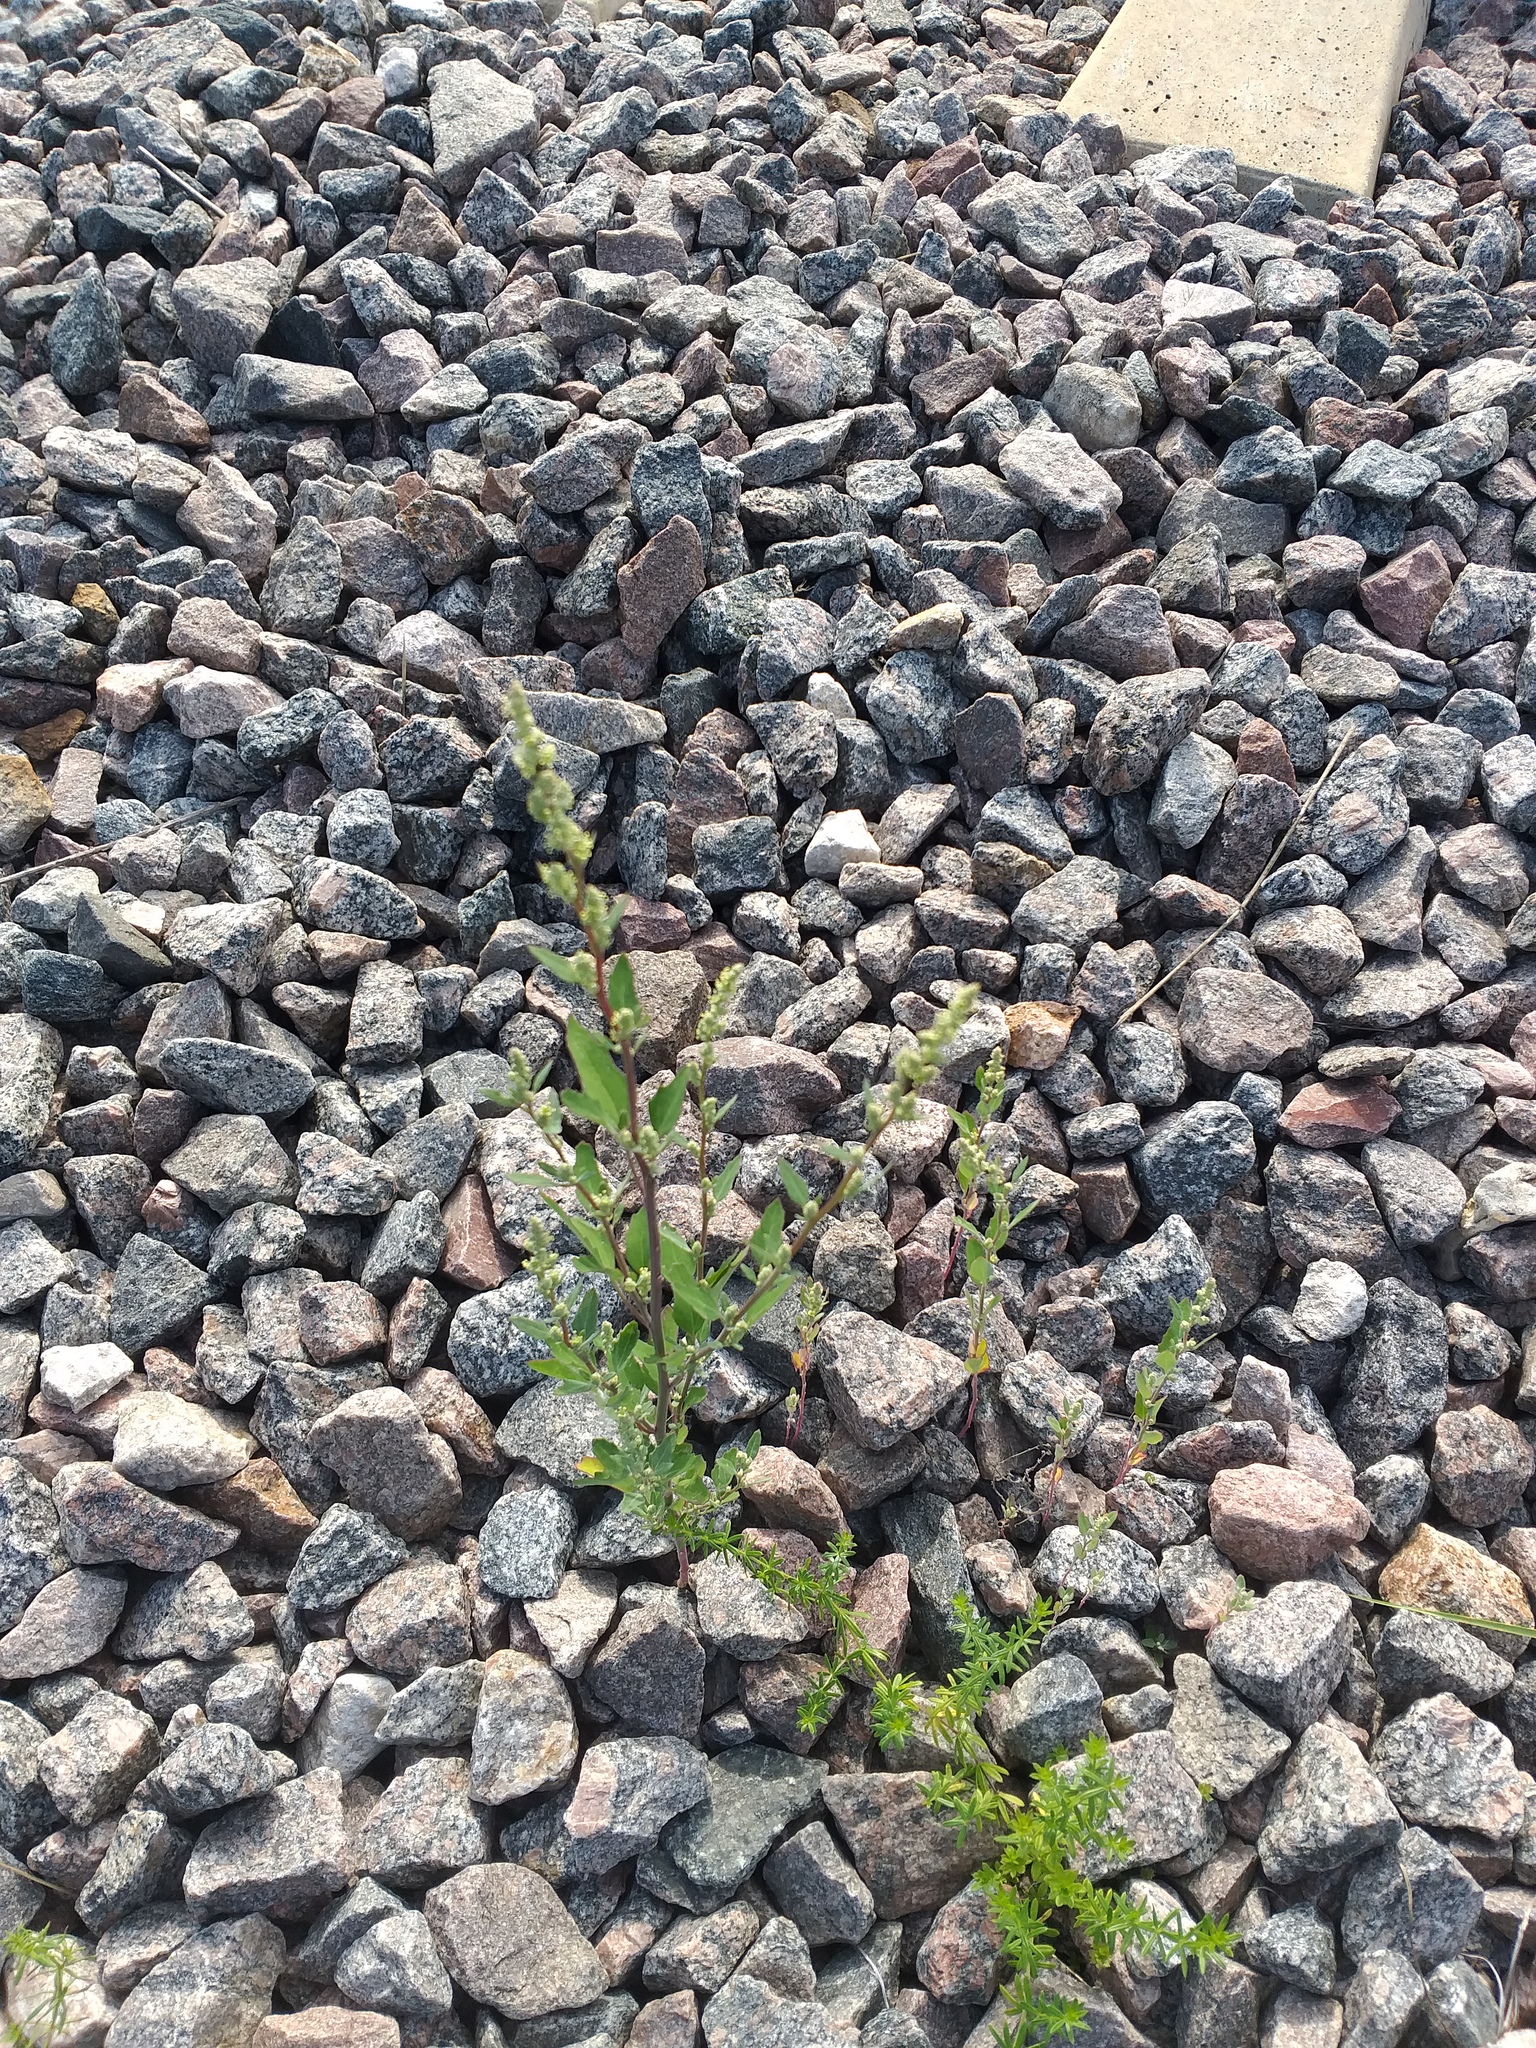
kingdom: Plantae
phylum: Tracheophyta
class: Magnoliopsida
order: Caryophyllales
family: Amaranthaceae
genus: Chenopodium
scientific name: Chenopodium betaceum
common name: Striped goosefoot
